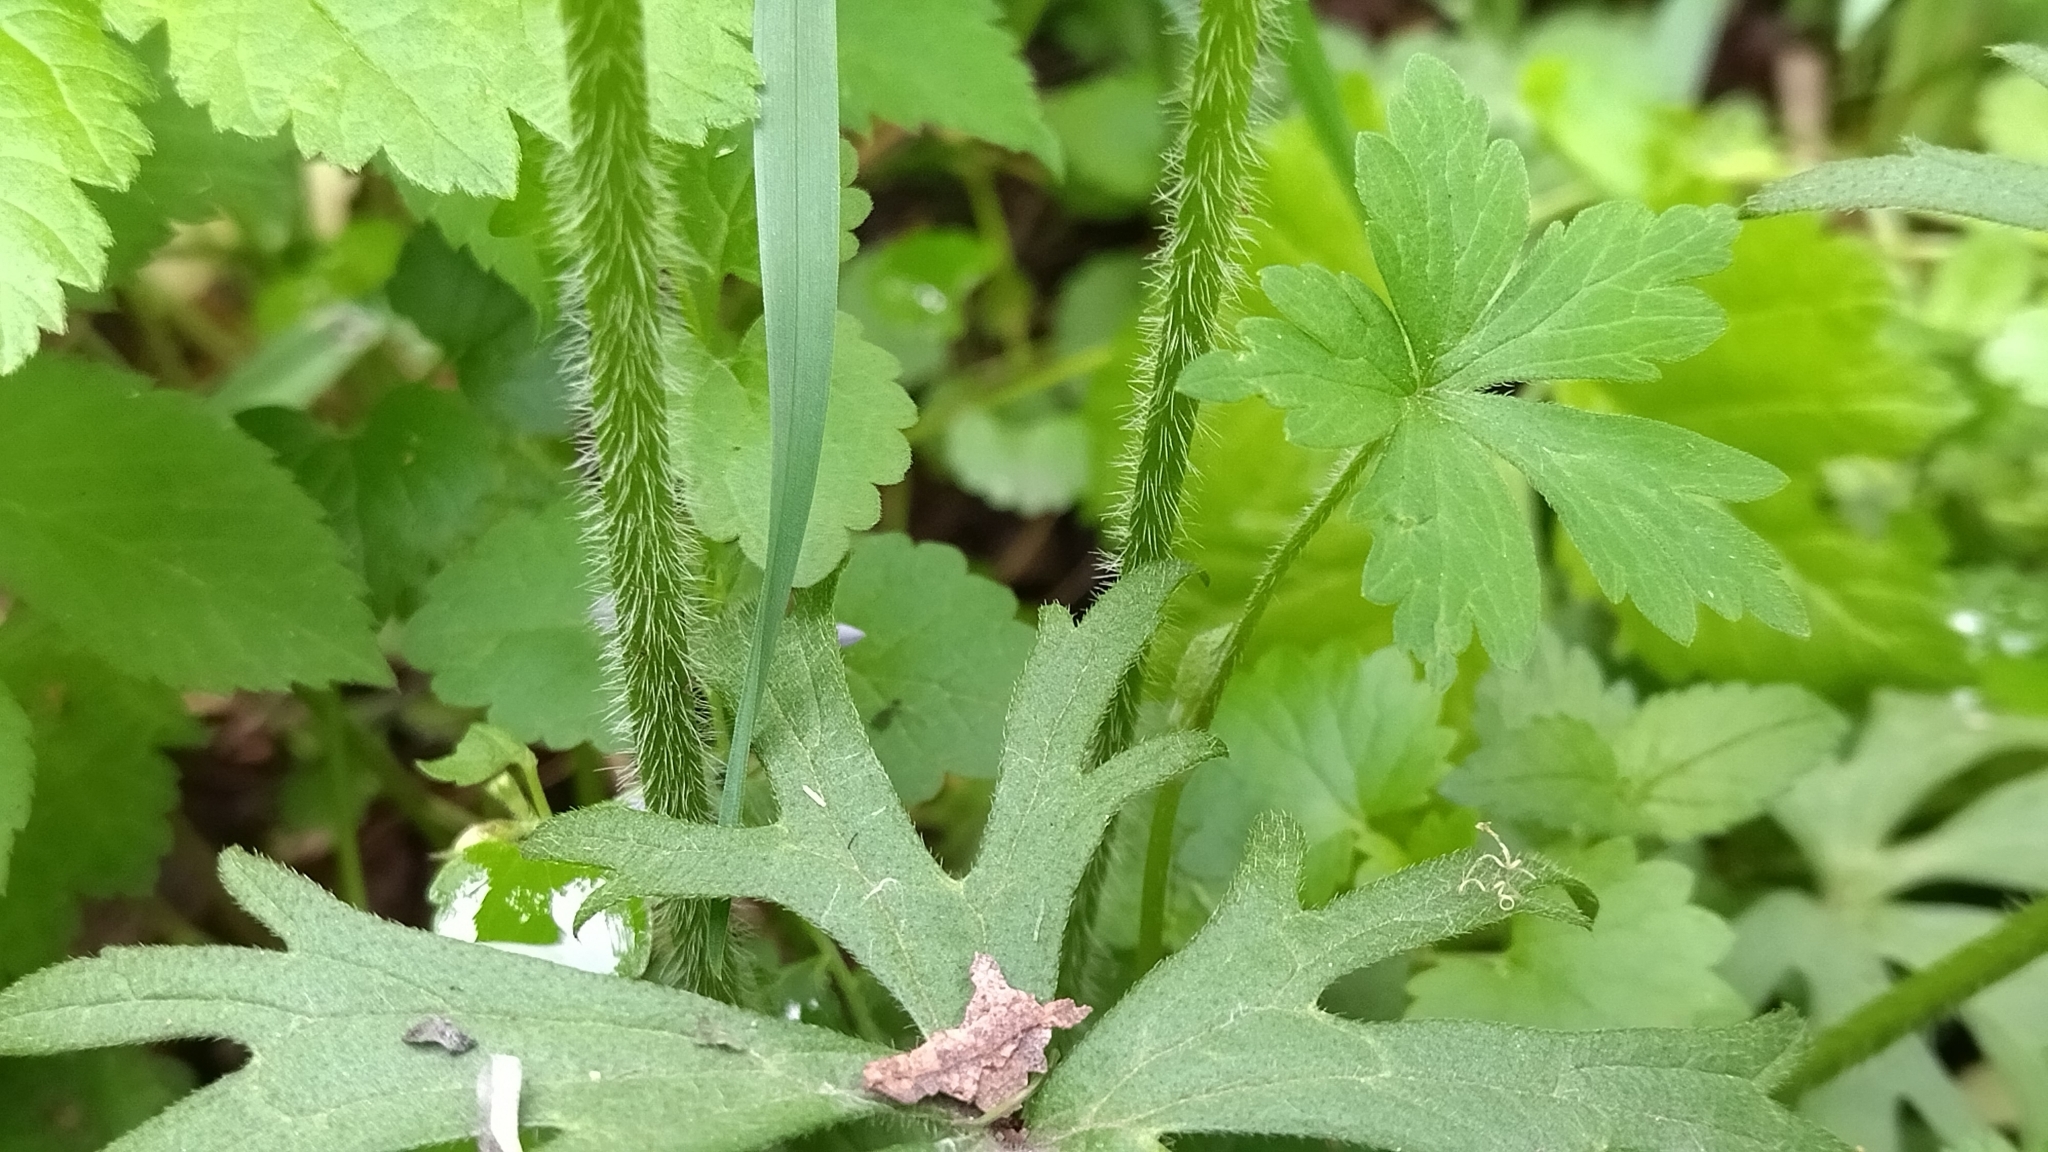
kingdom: Plantae
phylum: Tracheophyta
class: Magnoliopsida
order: Ranunculales
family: Ranunculaceae
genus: Ranunculus
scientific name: Ranunculus polyanthemos
